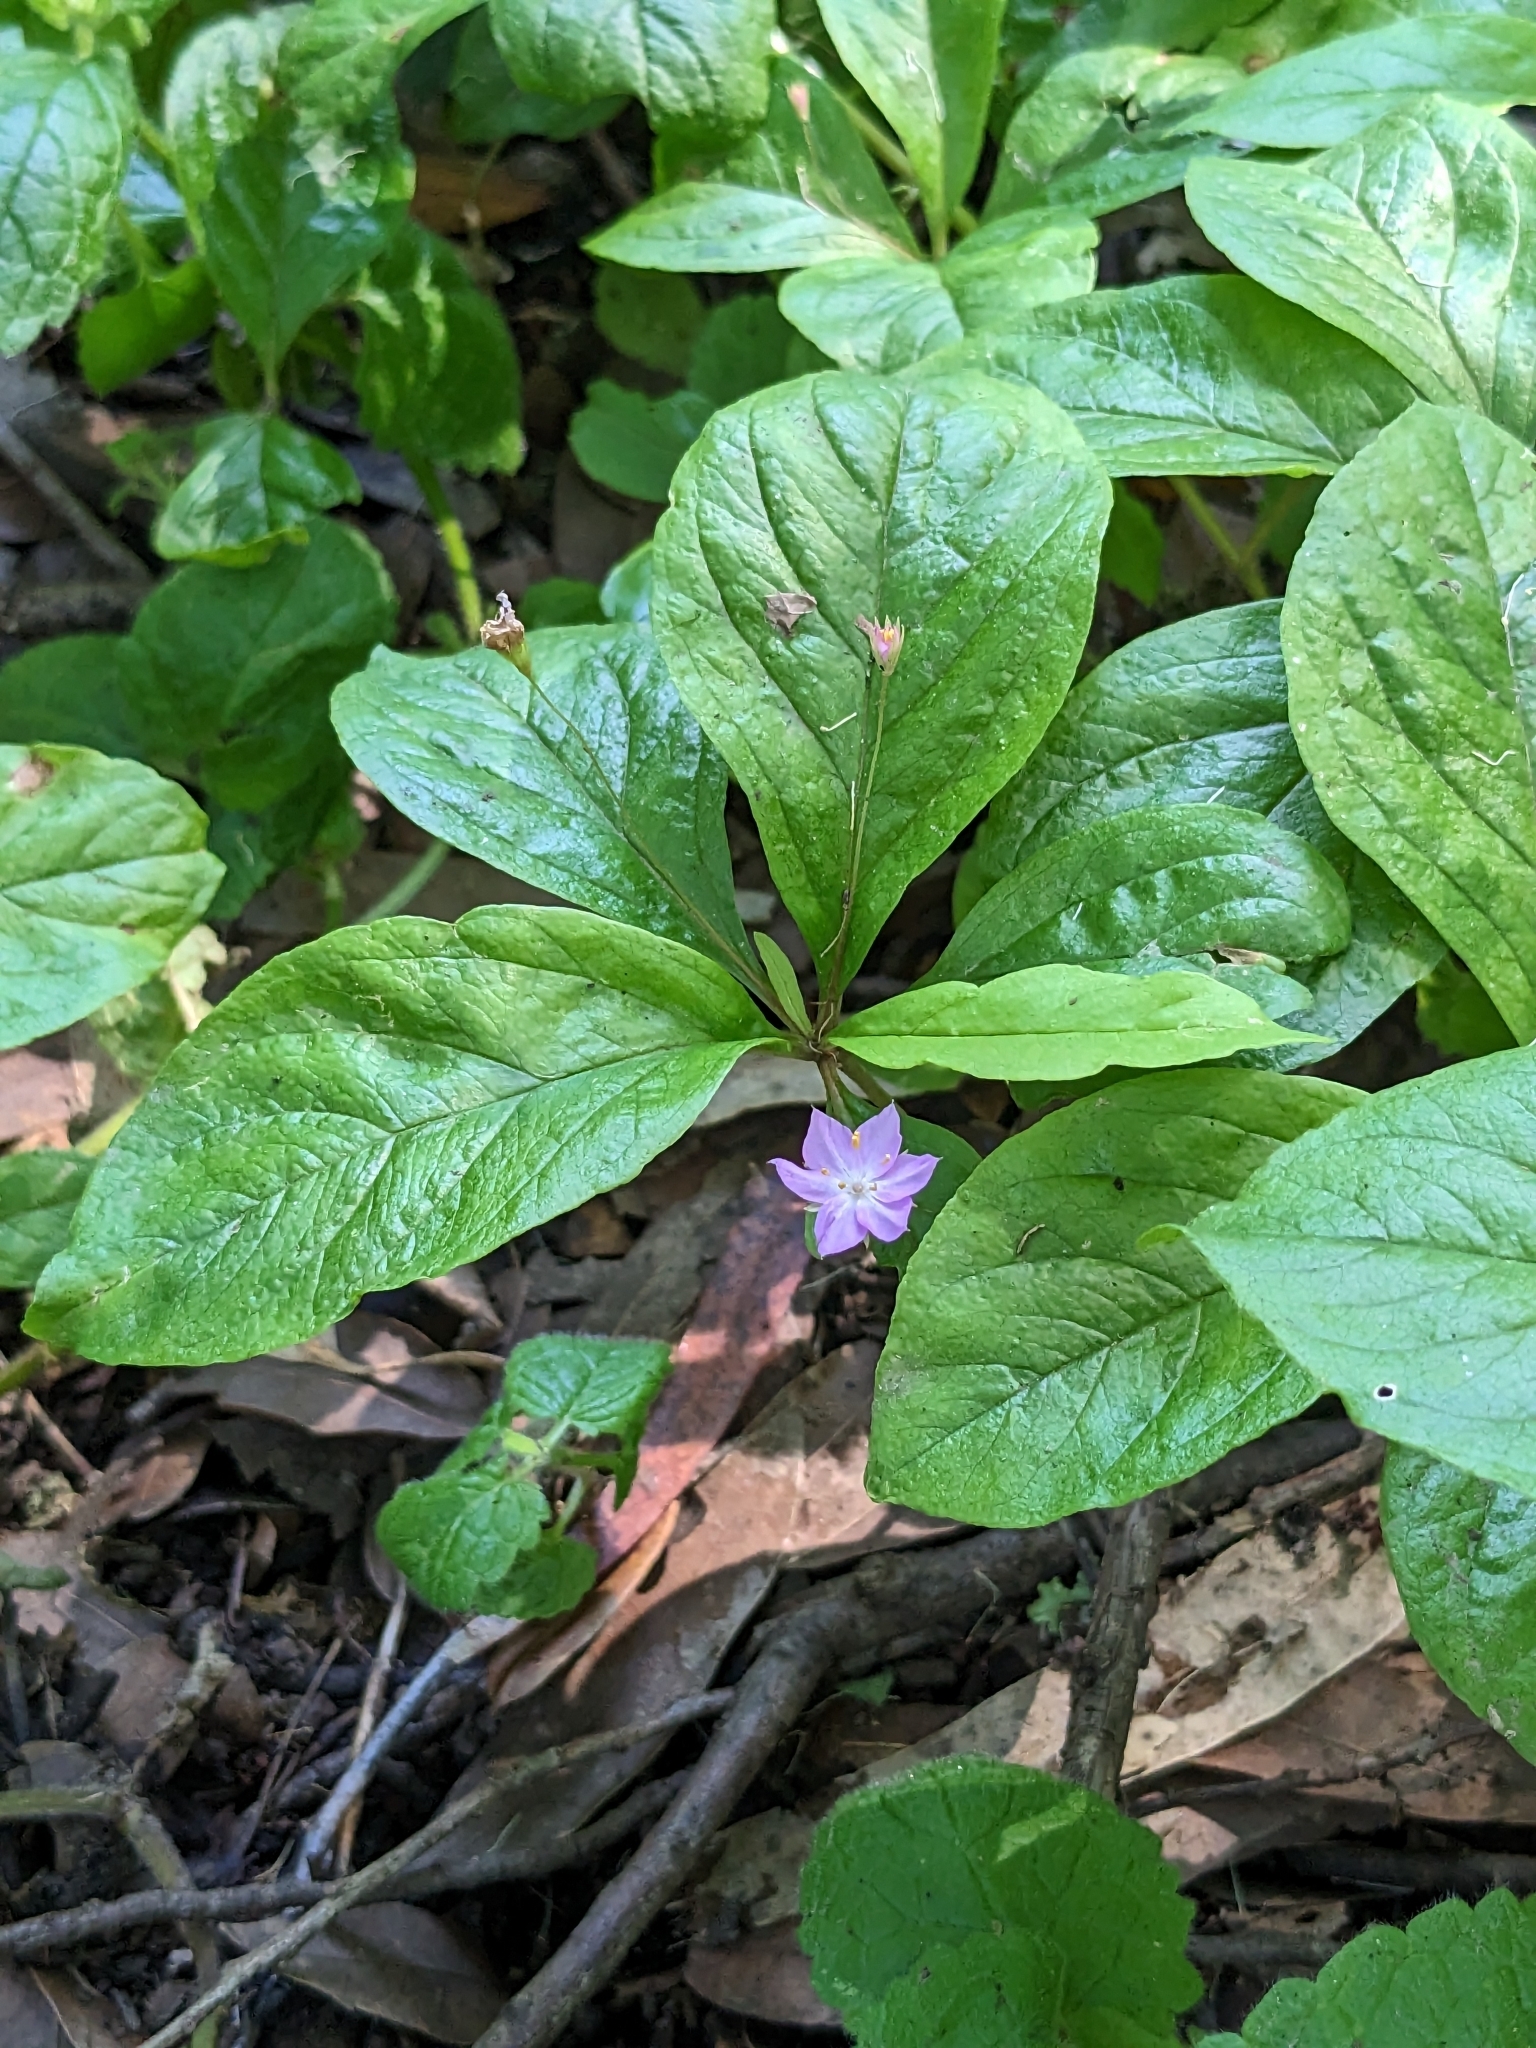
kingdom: Plantae
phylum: Tracheophyta
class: Magnoliopsida
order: Ericales
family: Primulaceae
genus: Lysimachia
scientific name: Lysimachia latifolia
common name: Pacific starflower
